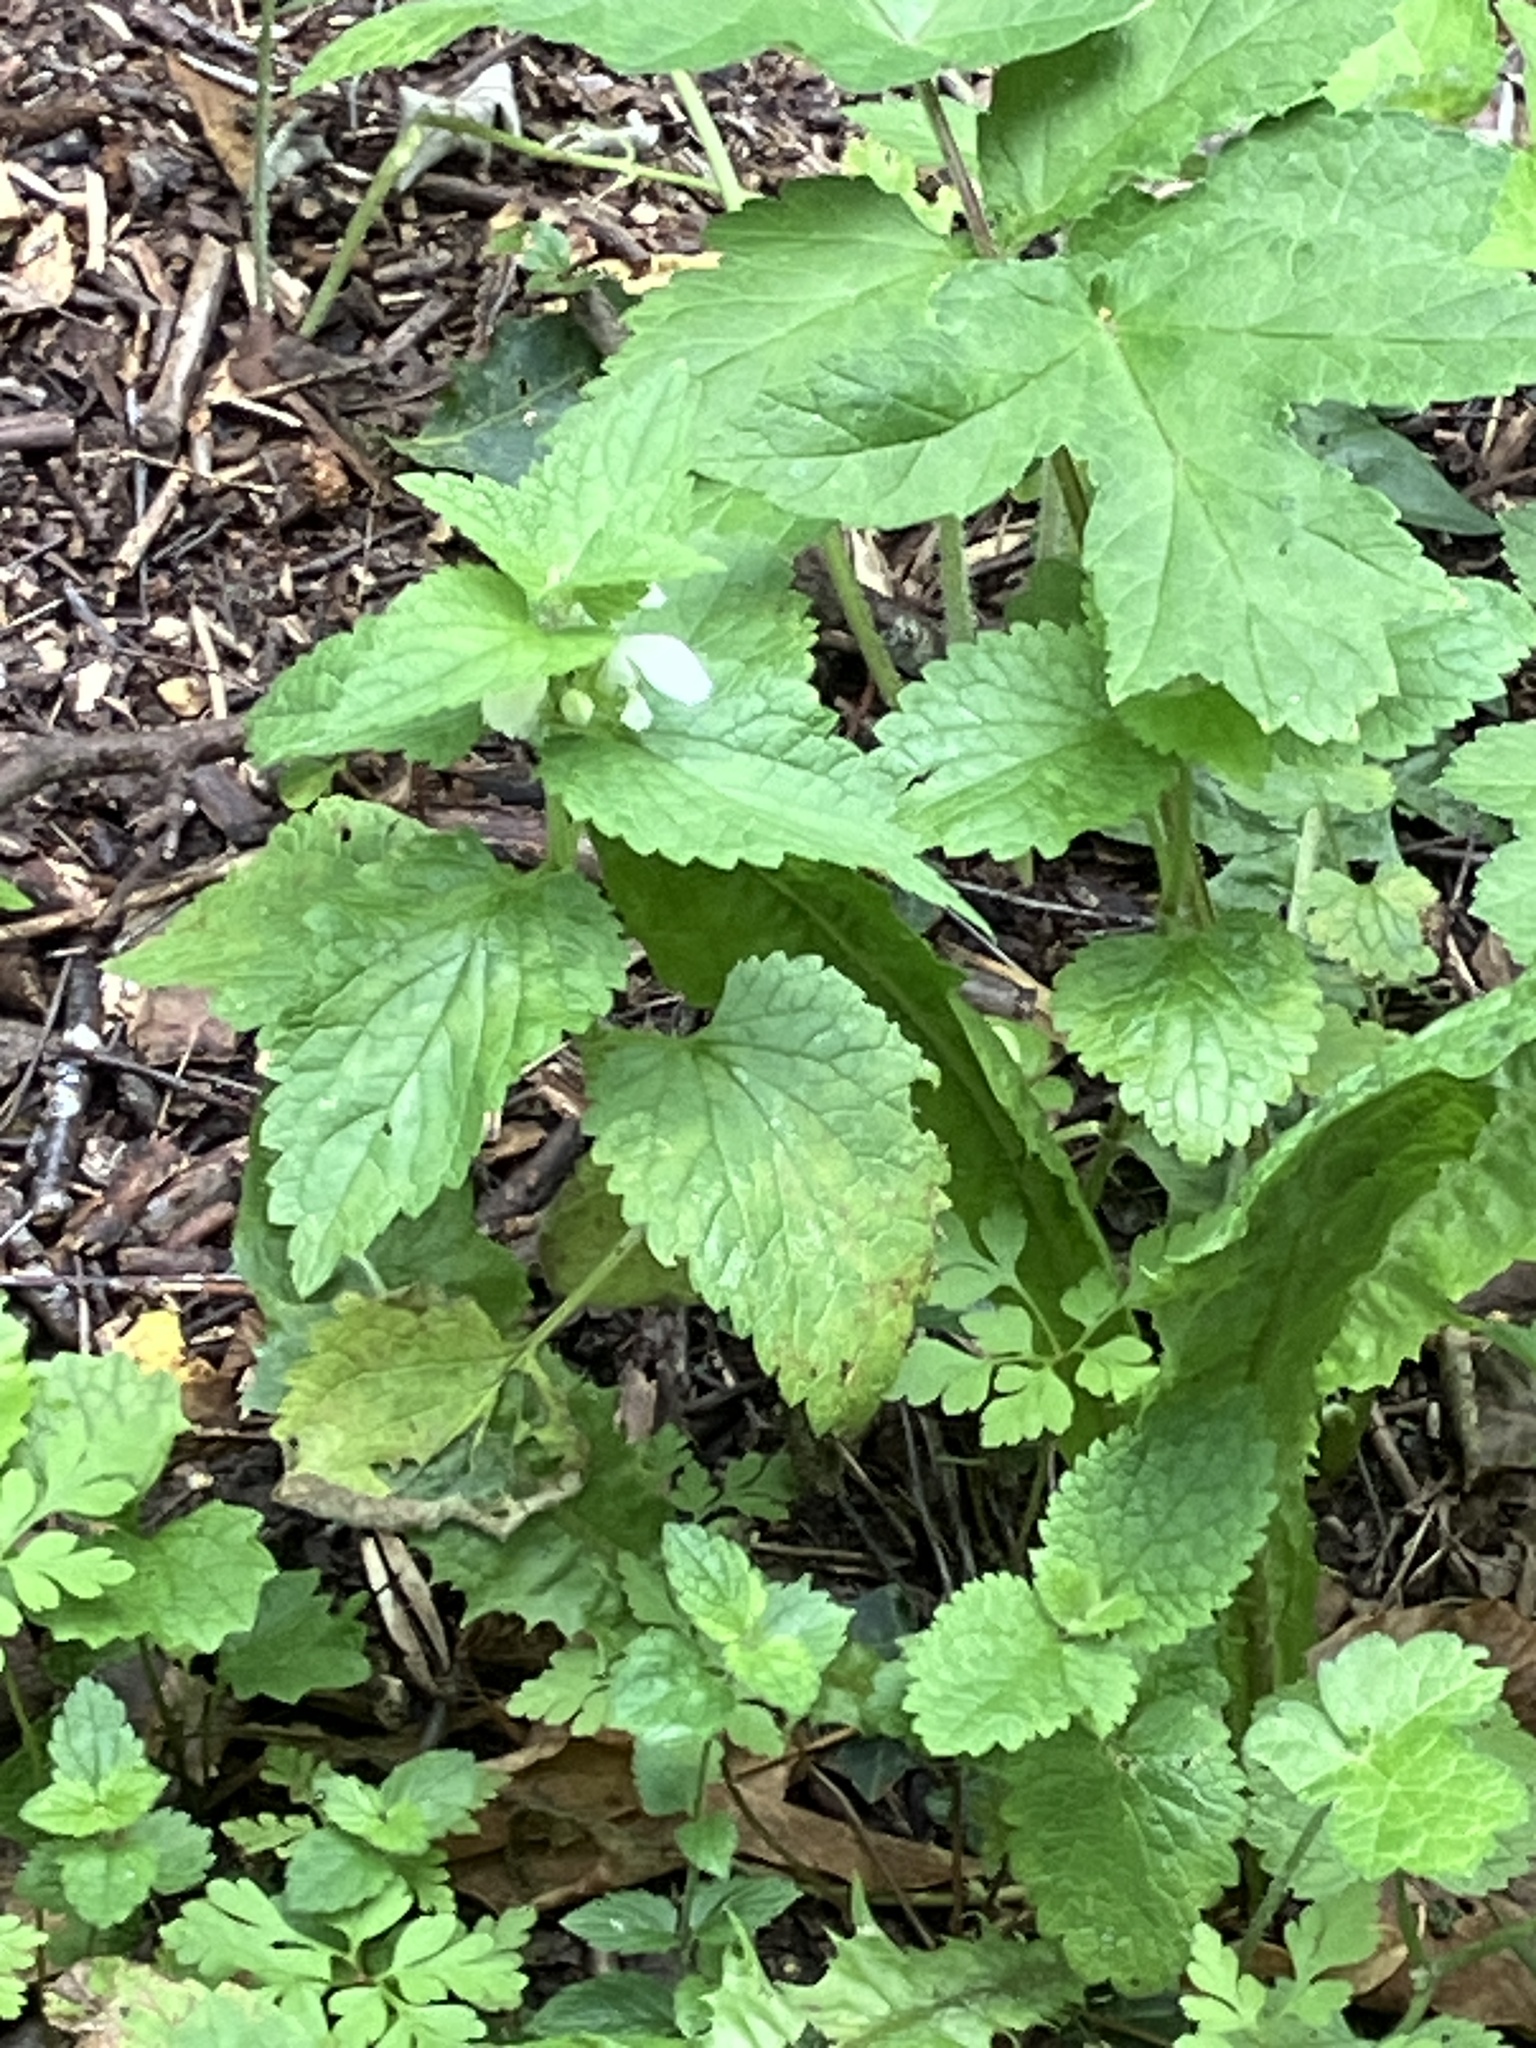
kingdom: Plantae
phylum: Tracheophyta
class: Magnoliopsida
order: Lamiales
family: Lamiaceae
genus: Lamium
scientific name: Lamium album
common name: White dead-nettle
